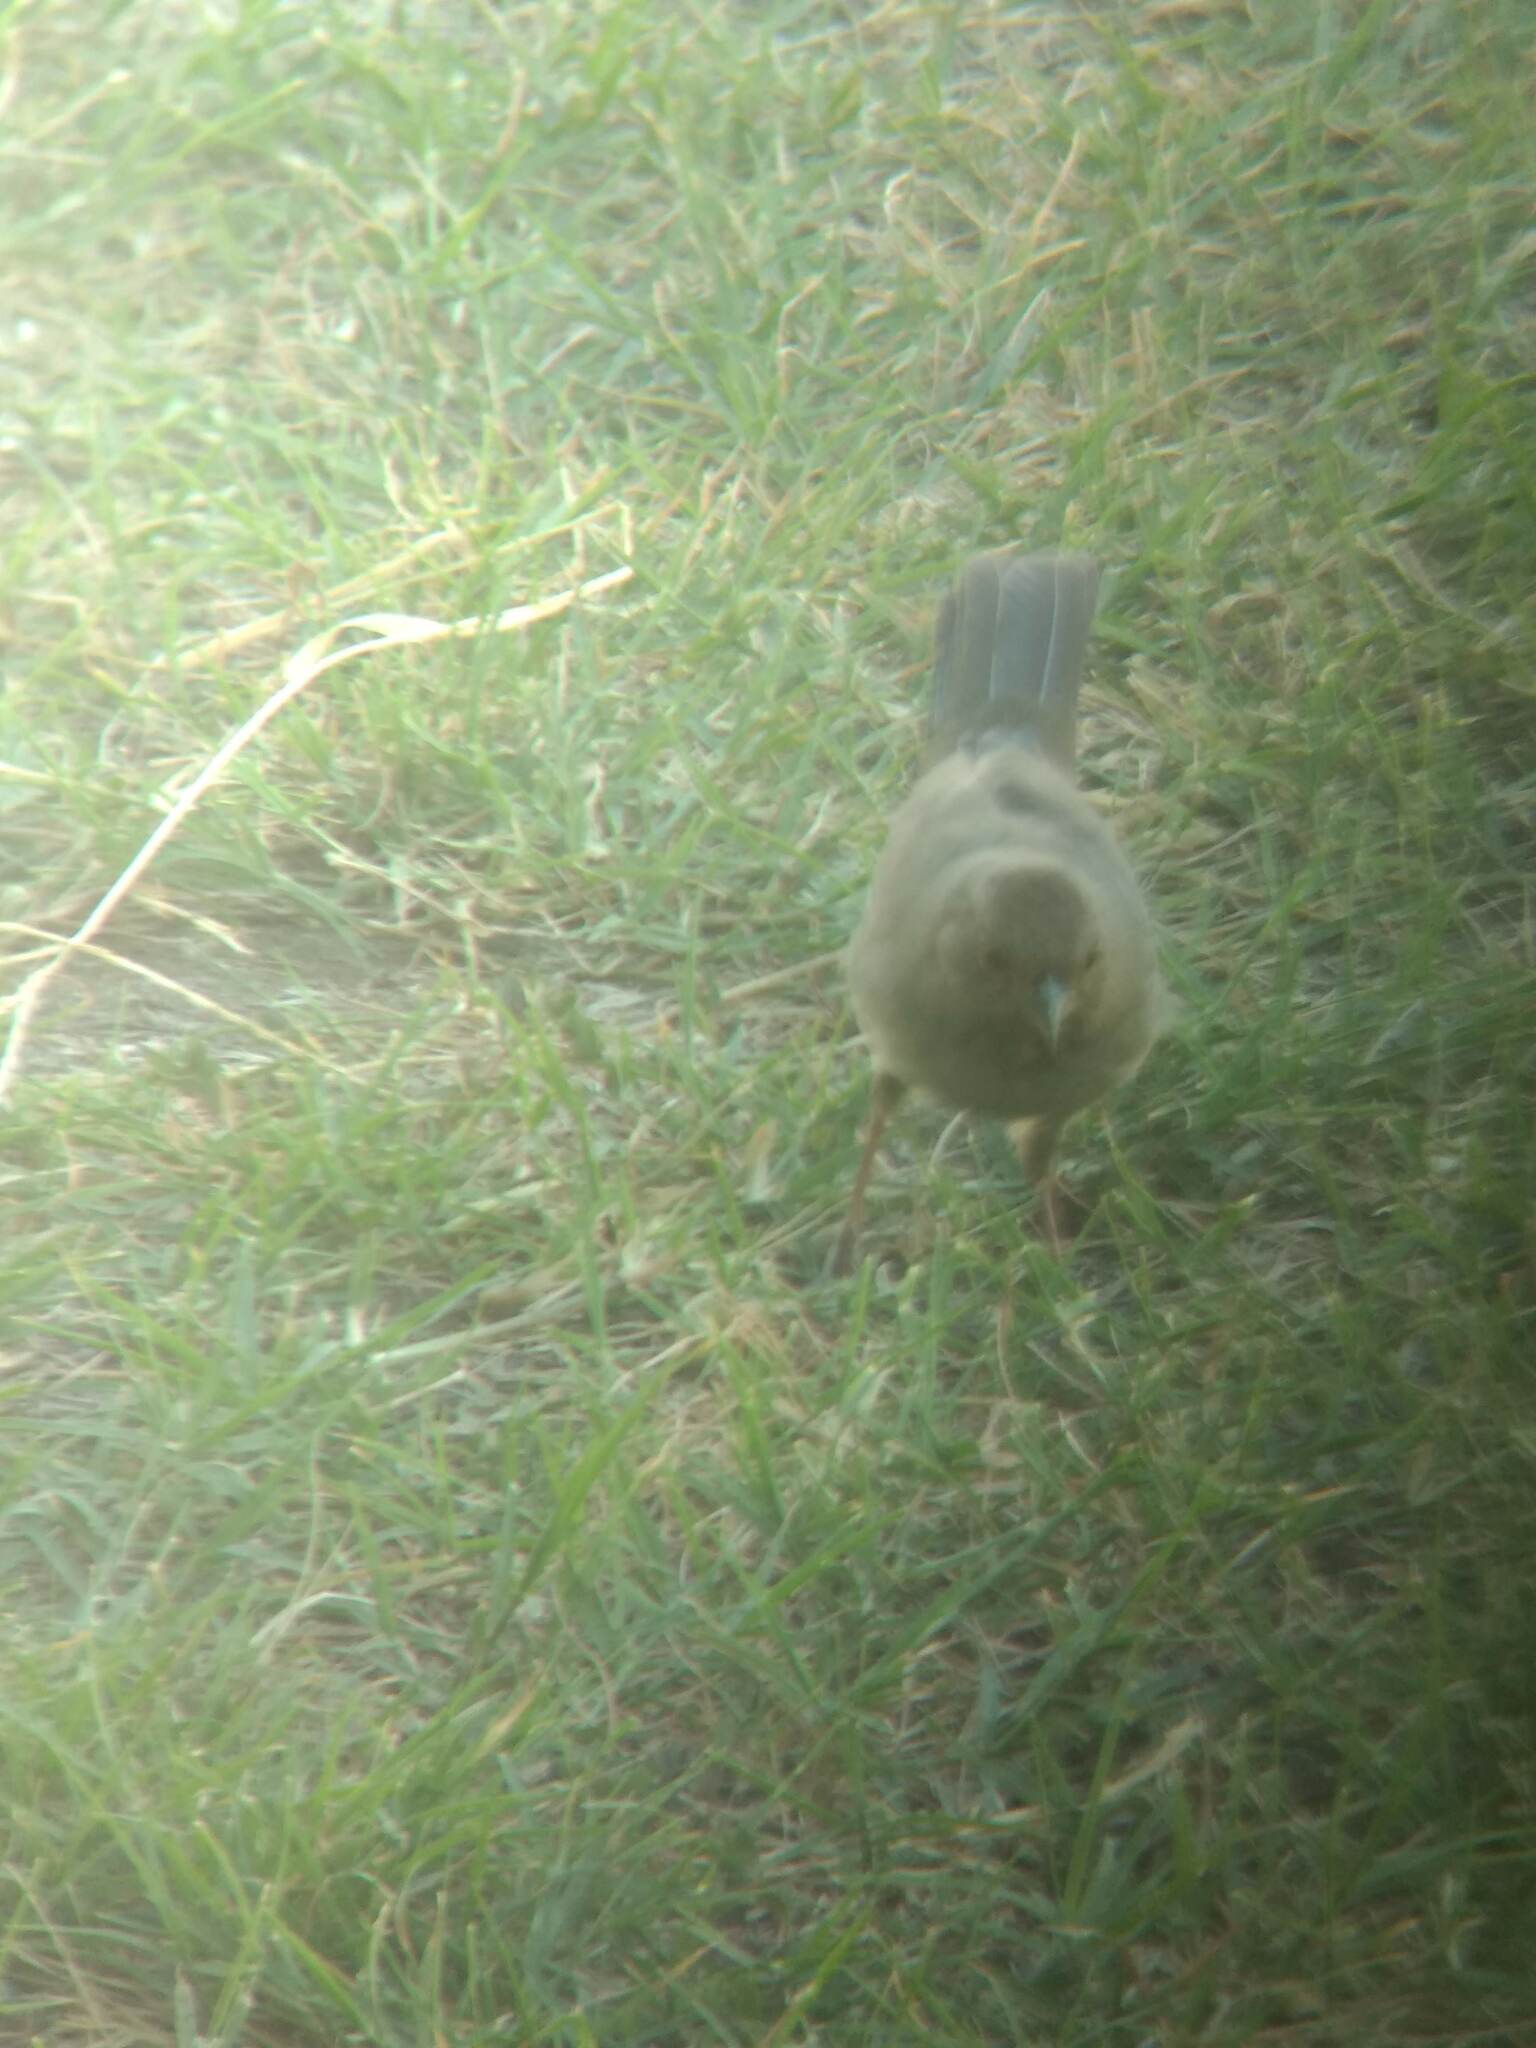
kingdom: Animalia
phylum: Chordata
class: Aves
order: Passeriformes
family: Passerellidae
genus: Melozone
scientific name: Melozone crissalis
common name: California towhee
